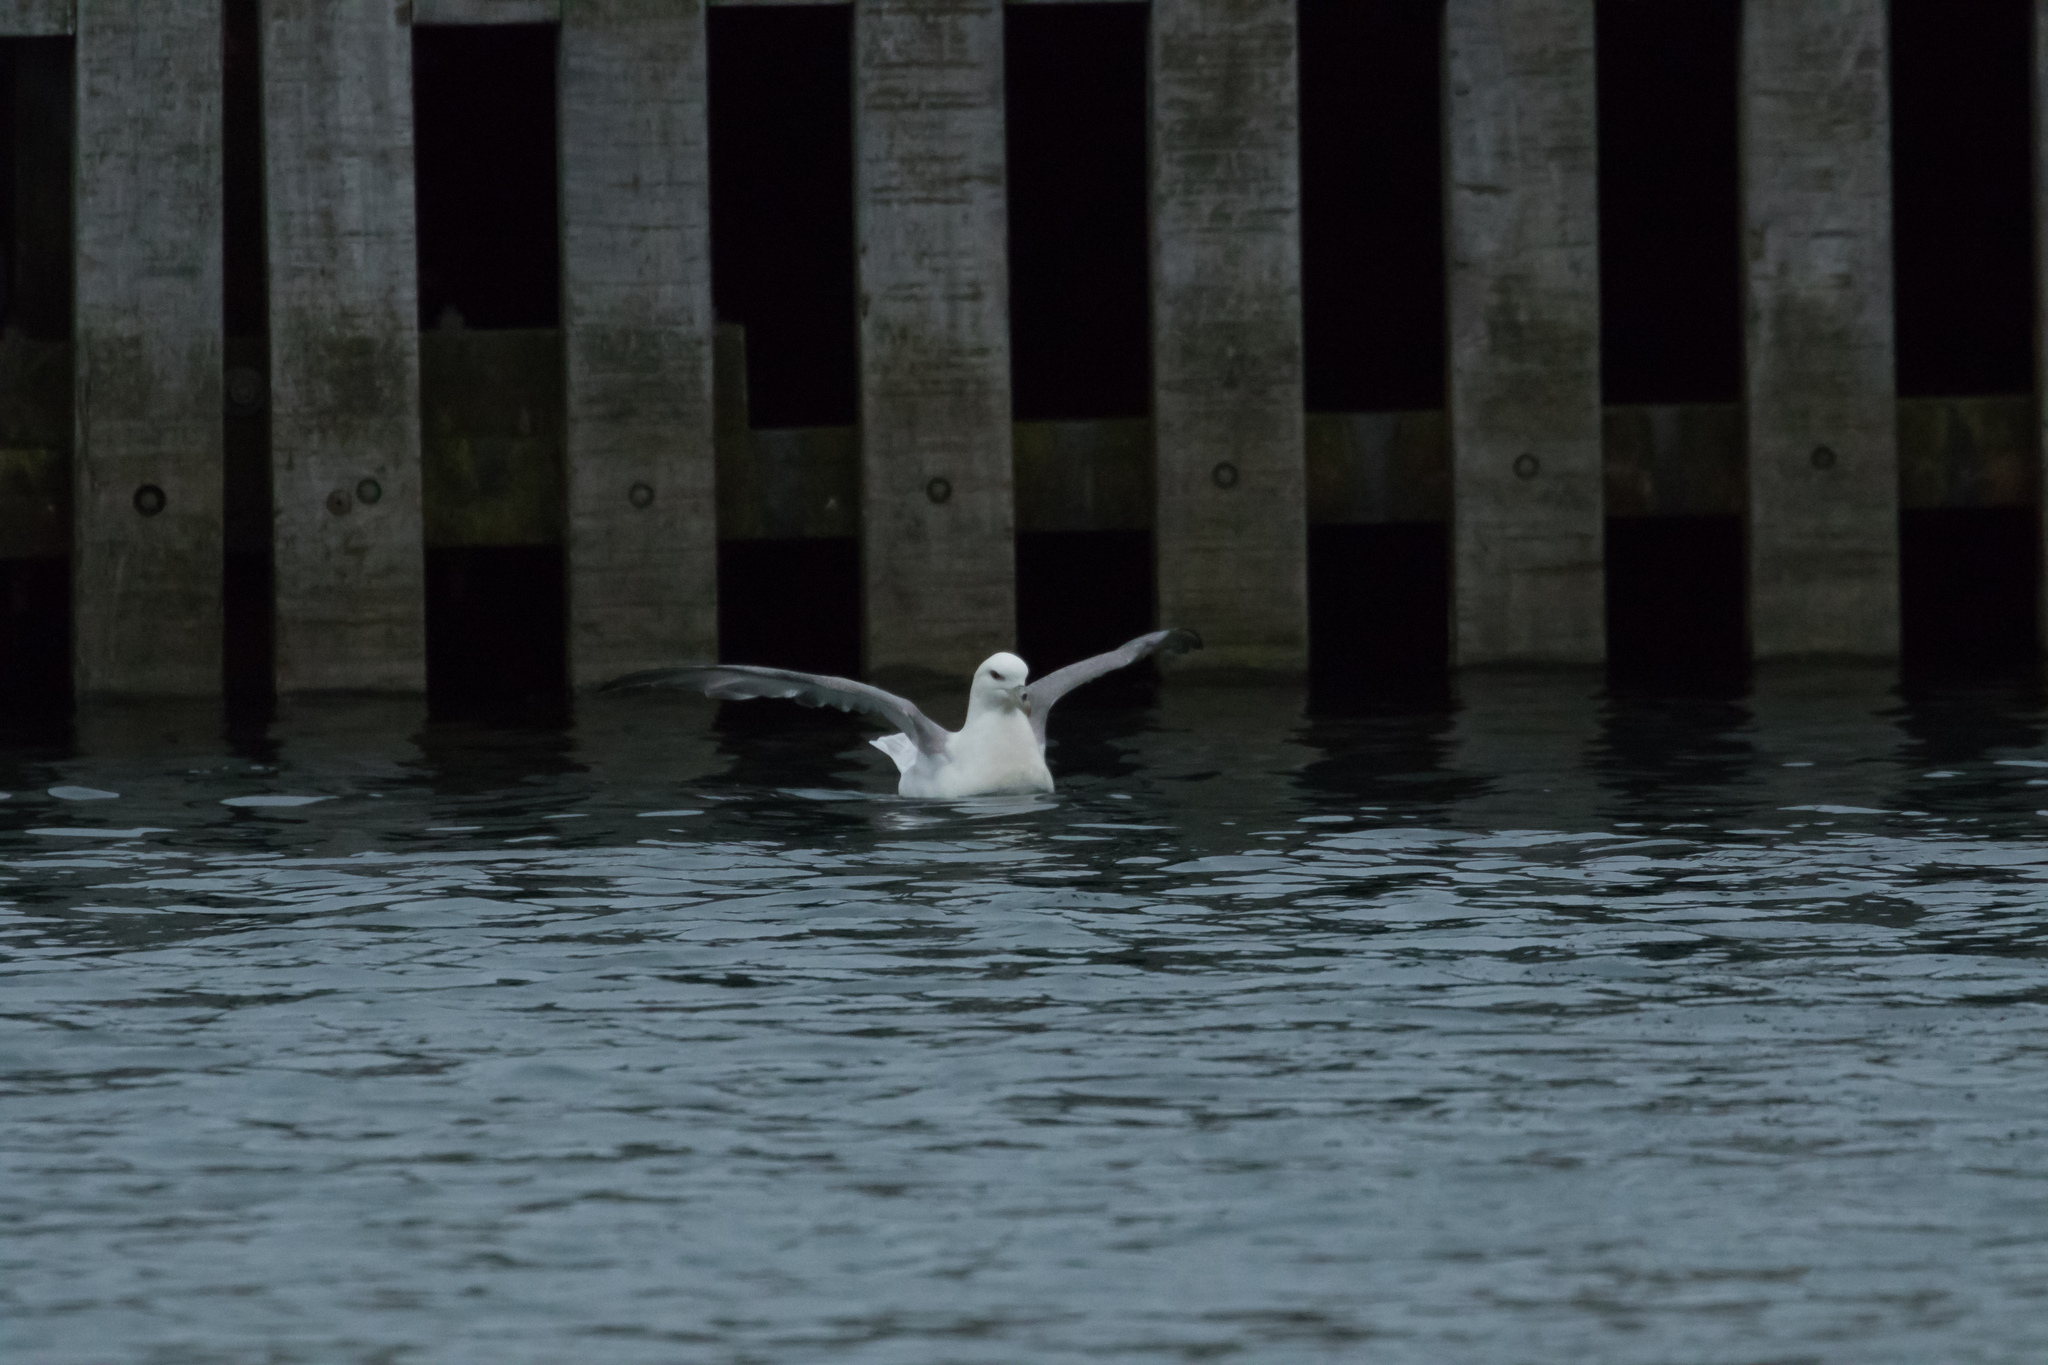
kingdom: Animalia
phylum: Chordata
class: Aves
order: Procellariiformes
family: Procellariidae
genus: Fulmarus
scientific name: Fulmarus glacialis
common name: Northern fulmar
